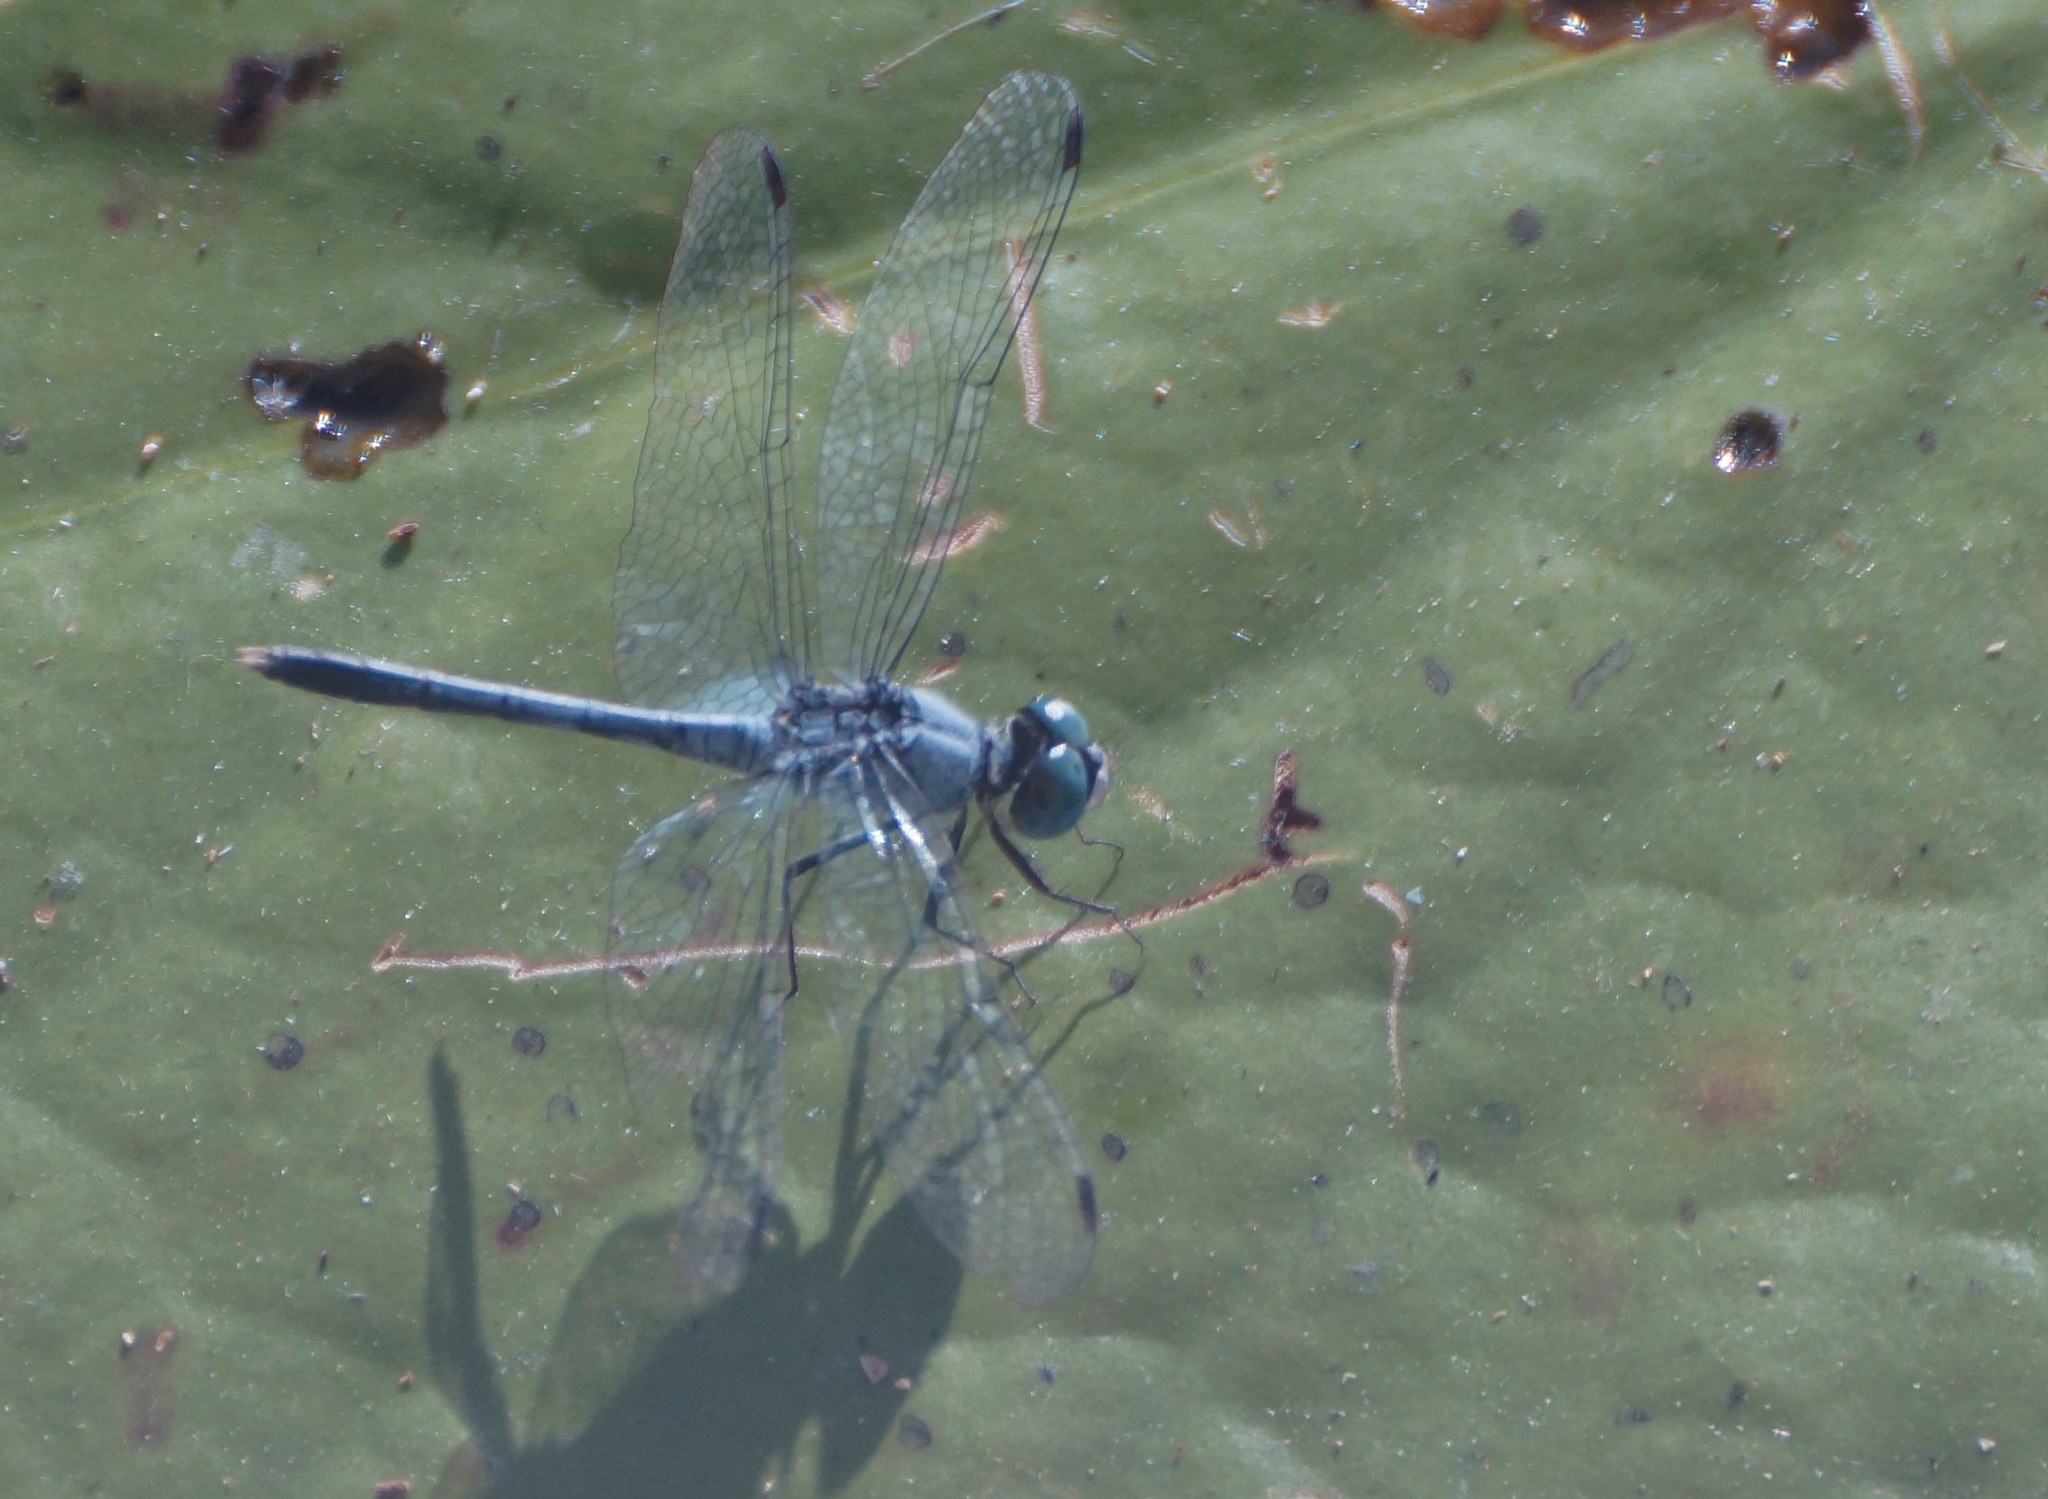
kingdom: Animalia
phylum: Arthropoda
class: Insecta
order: Odonata
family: Libellulidae
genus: Diplacodes
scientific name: Diplacodes trivialis
